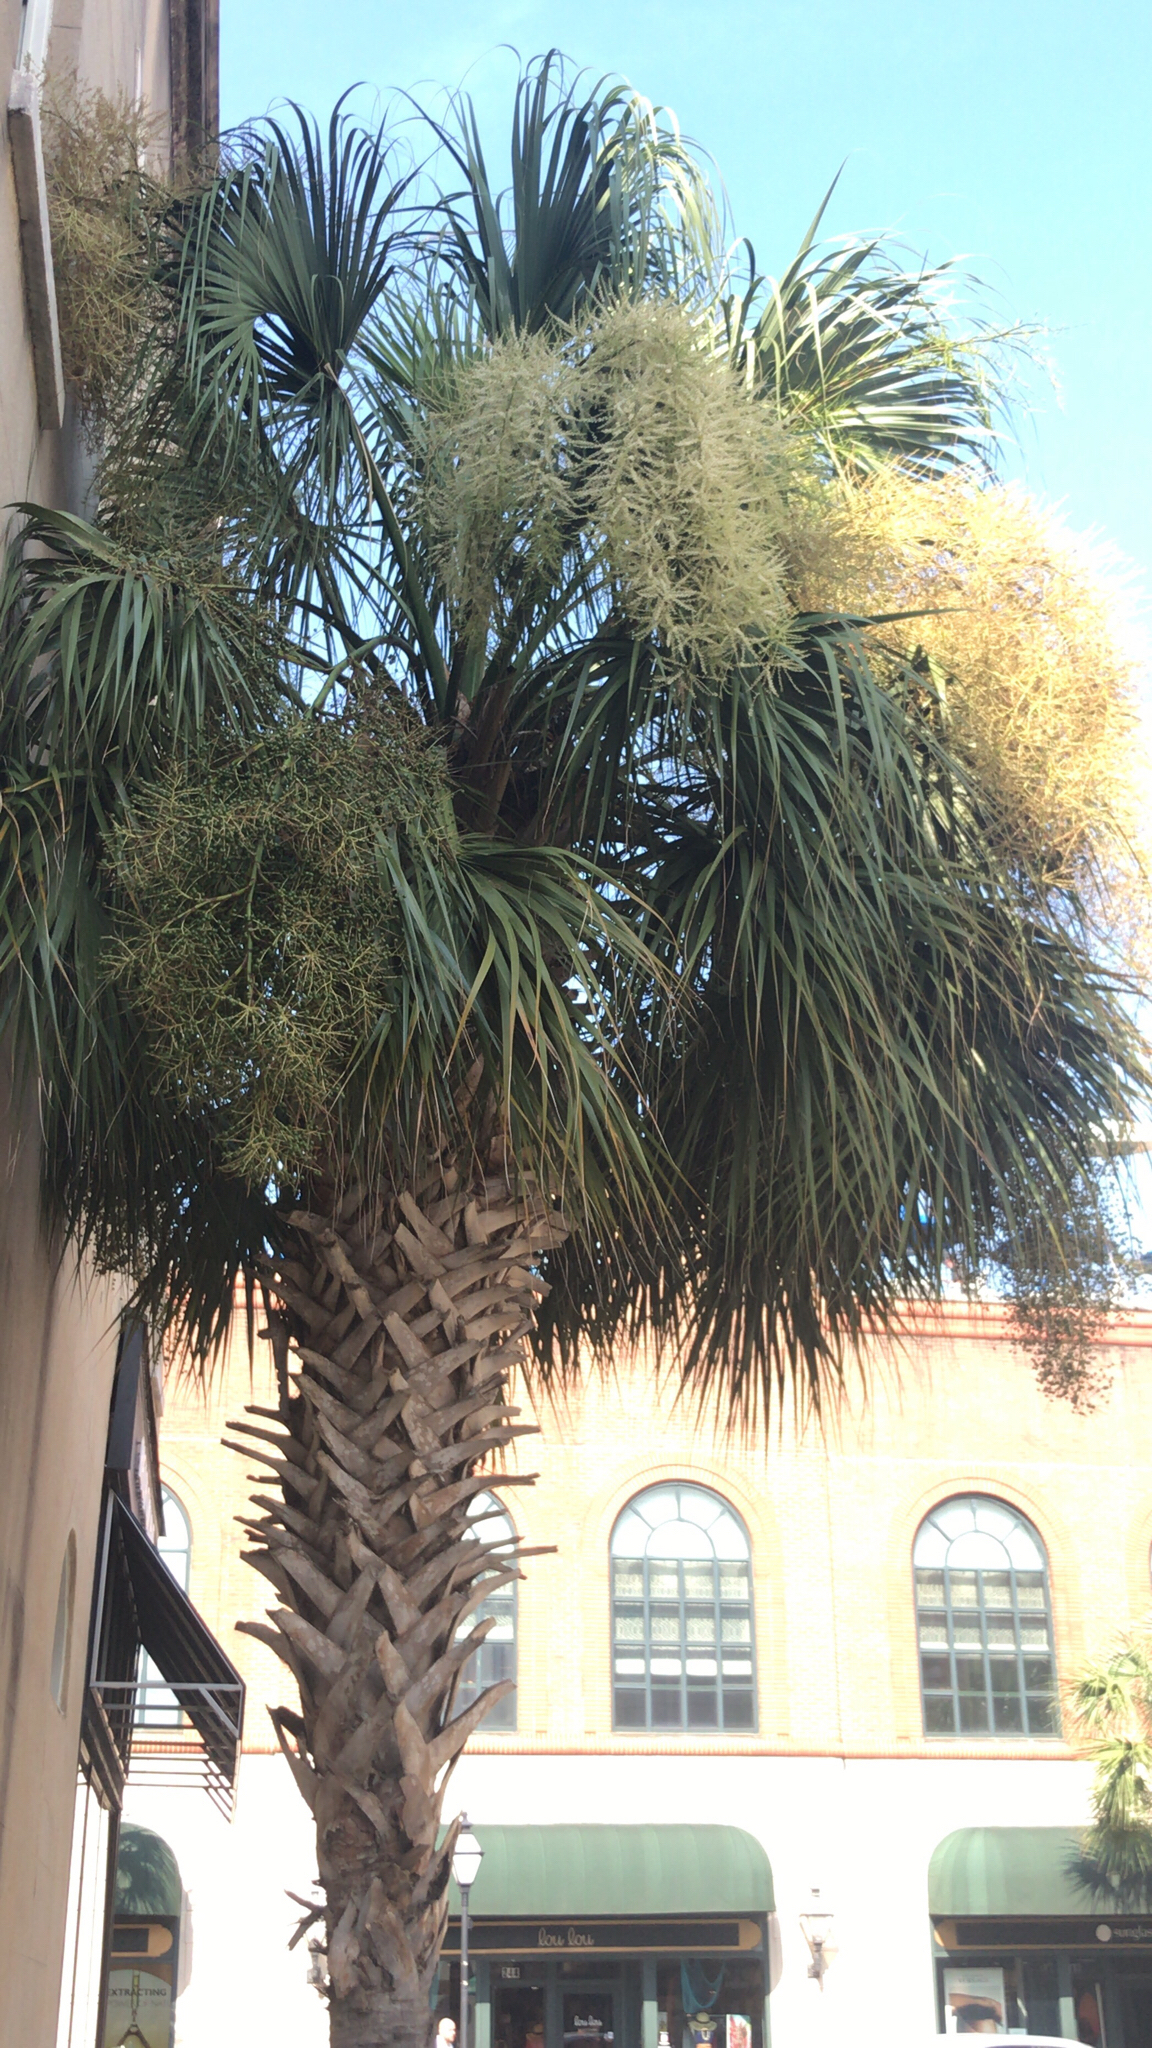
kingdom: Plantae
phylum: Tracheophyta
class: Liliopsida
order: Arecales
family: Arecaceae
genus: Sabal
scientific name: Sabal palmetto
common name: Blue palmetto
